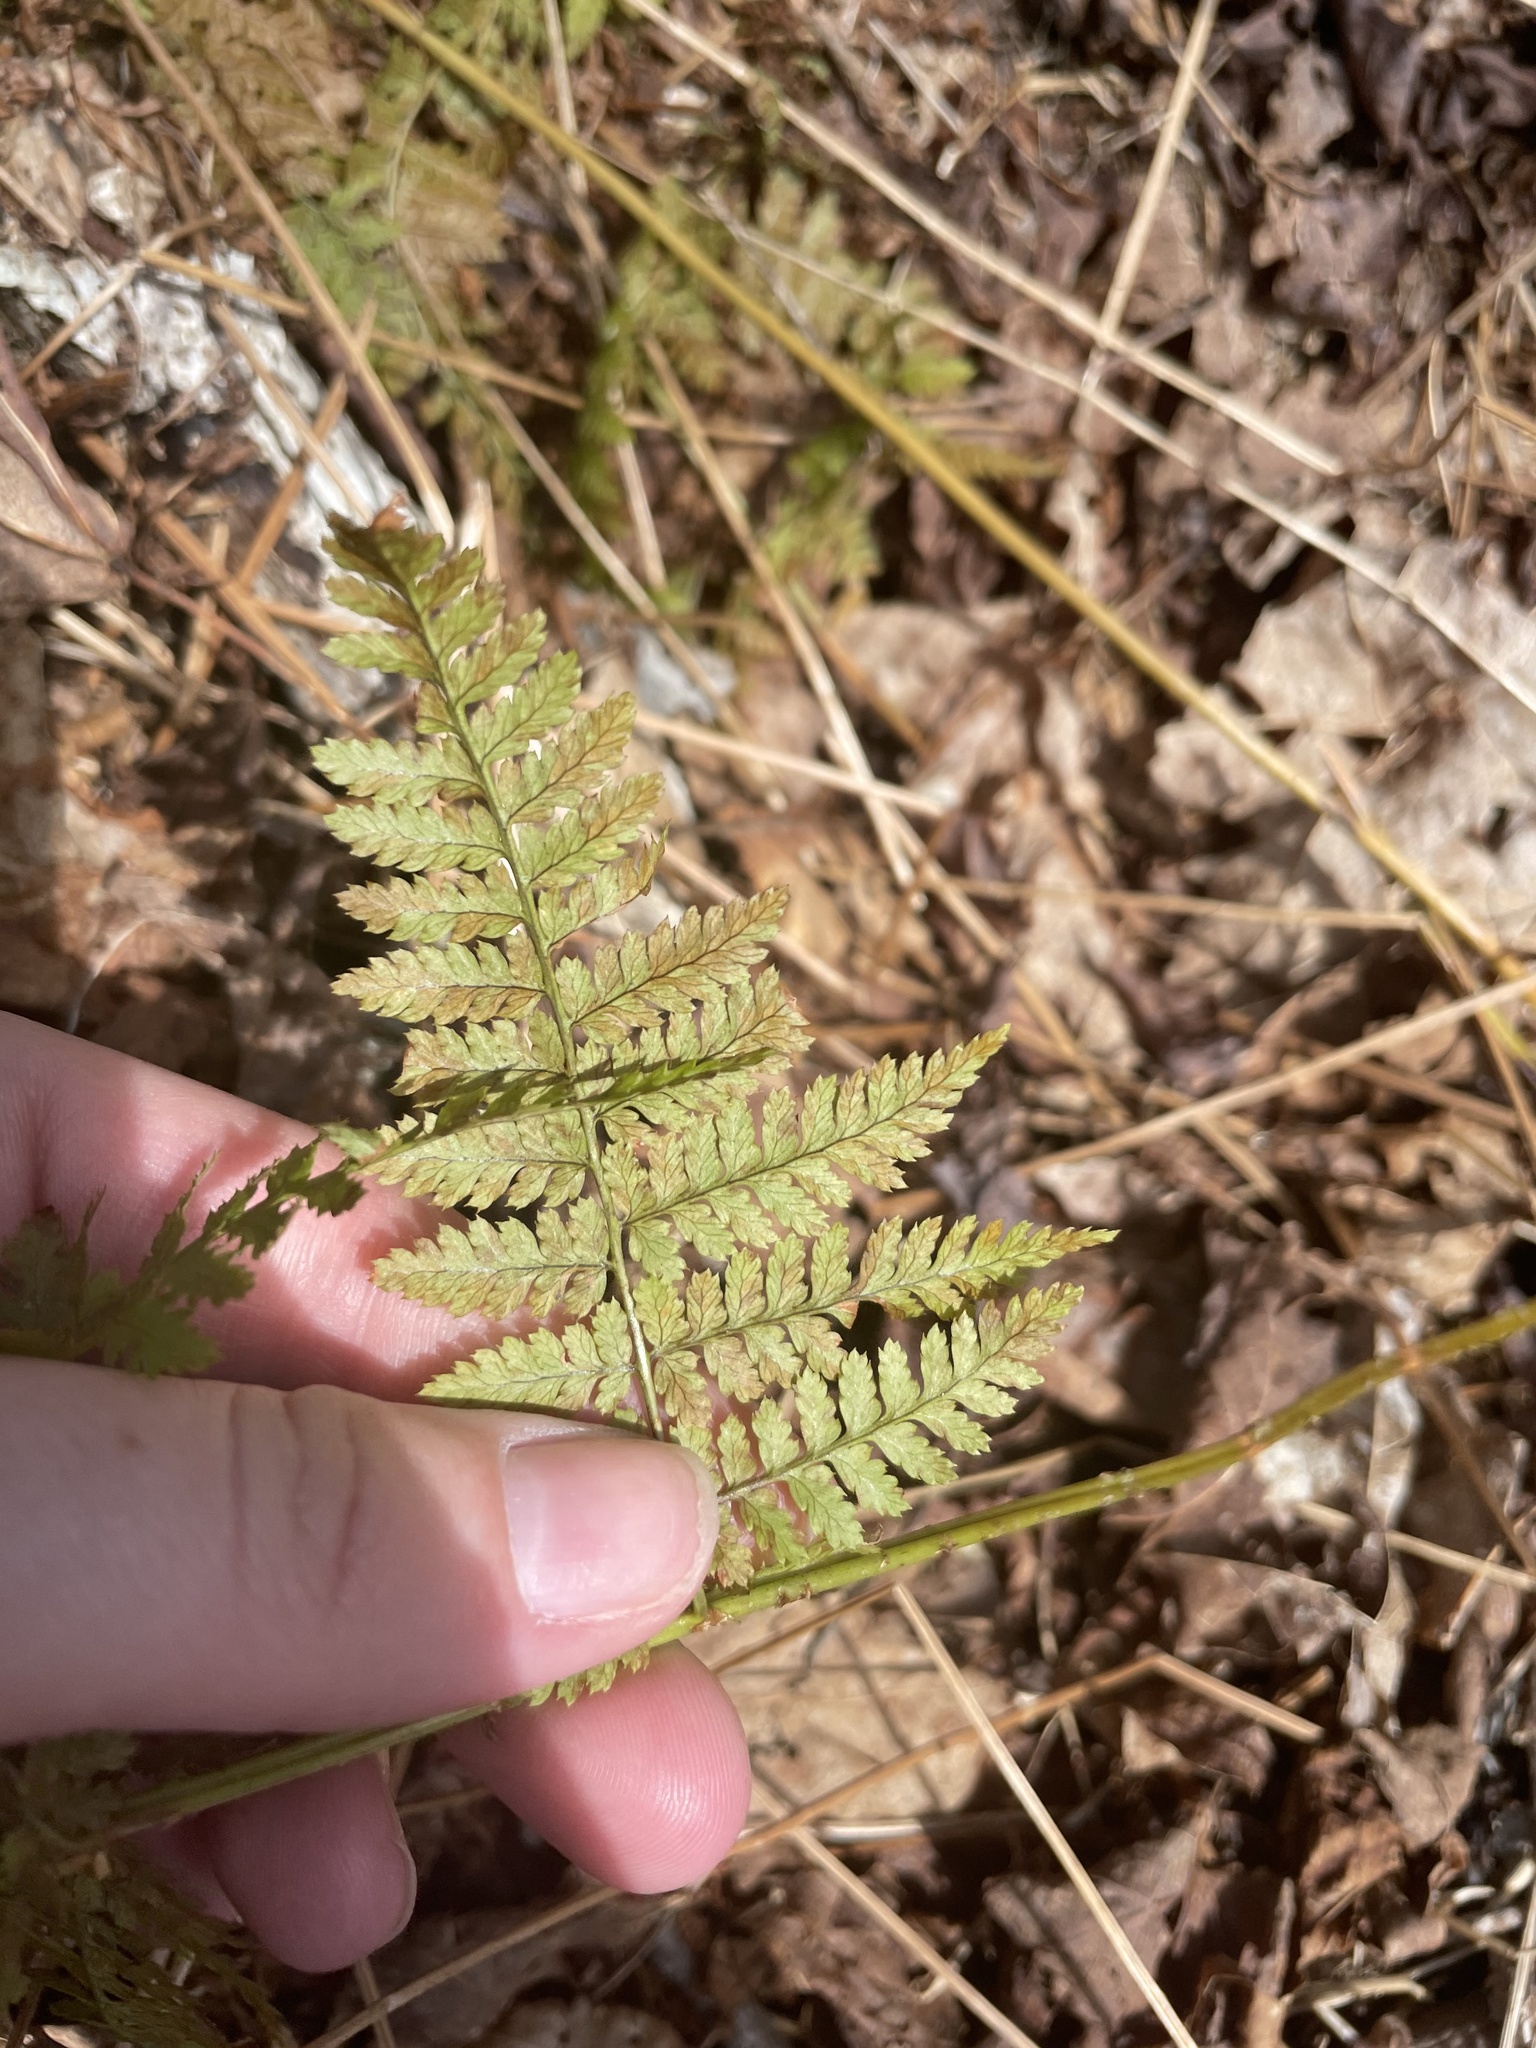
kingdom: Plantae
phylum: Tracheophyta
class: Polypodiopsida
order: Polypodiales
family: Dryopteridaceae
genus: Dryopteris
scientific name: Dryopteris intermedia
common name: Evergreen wood fern
